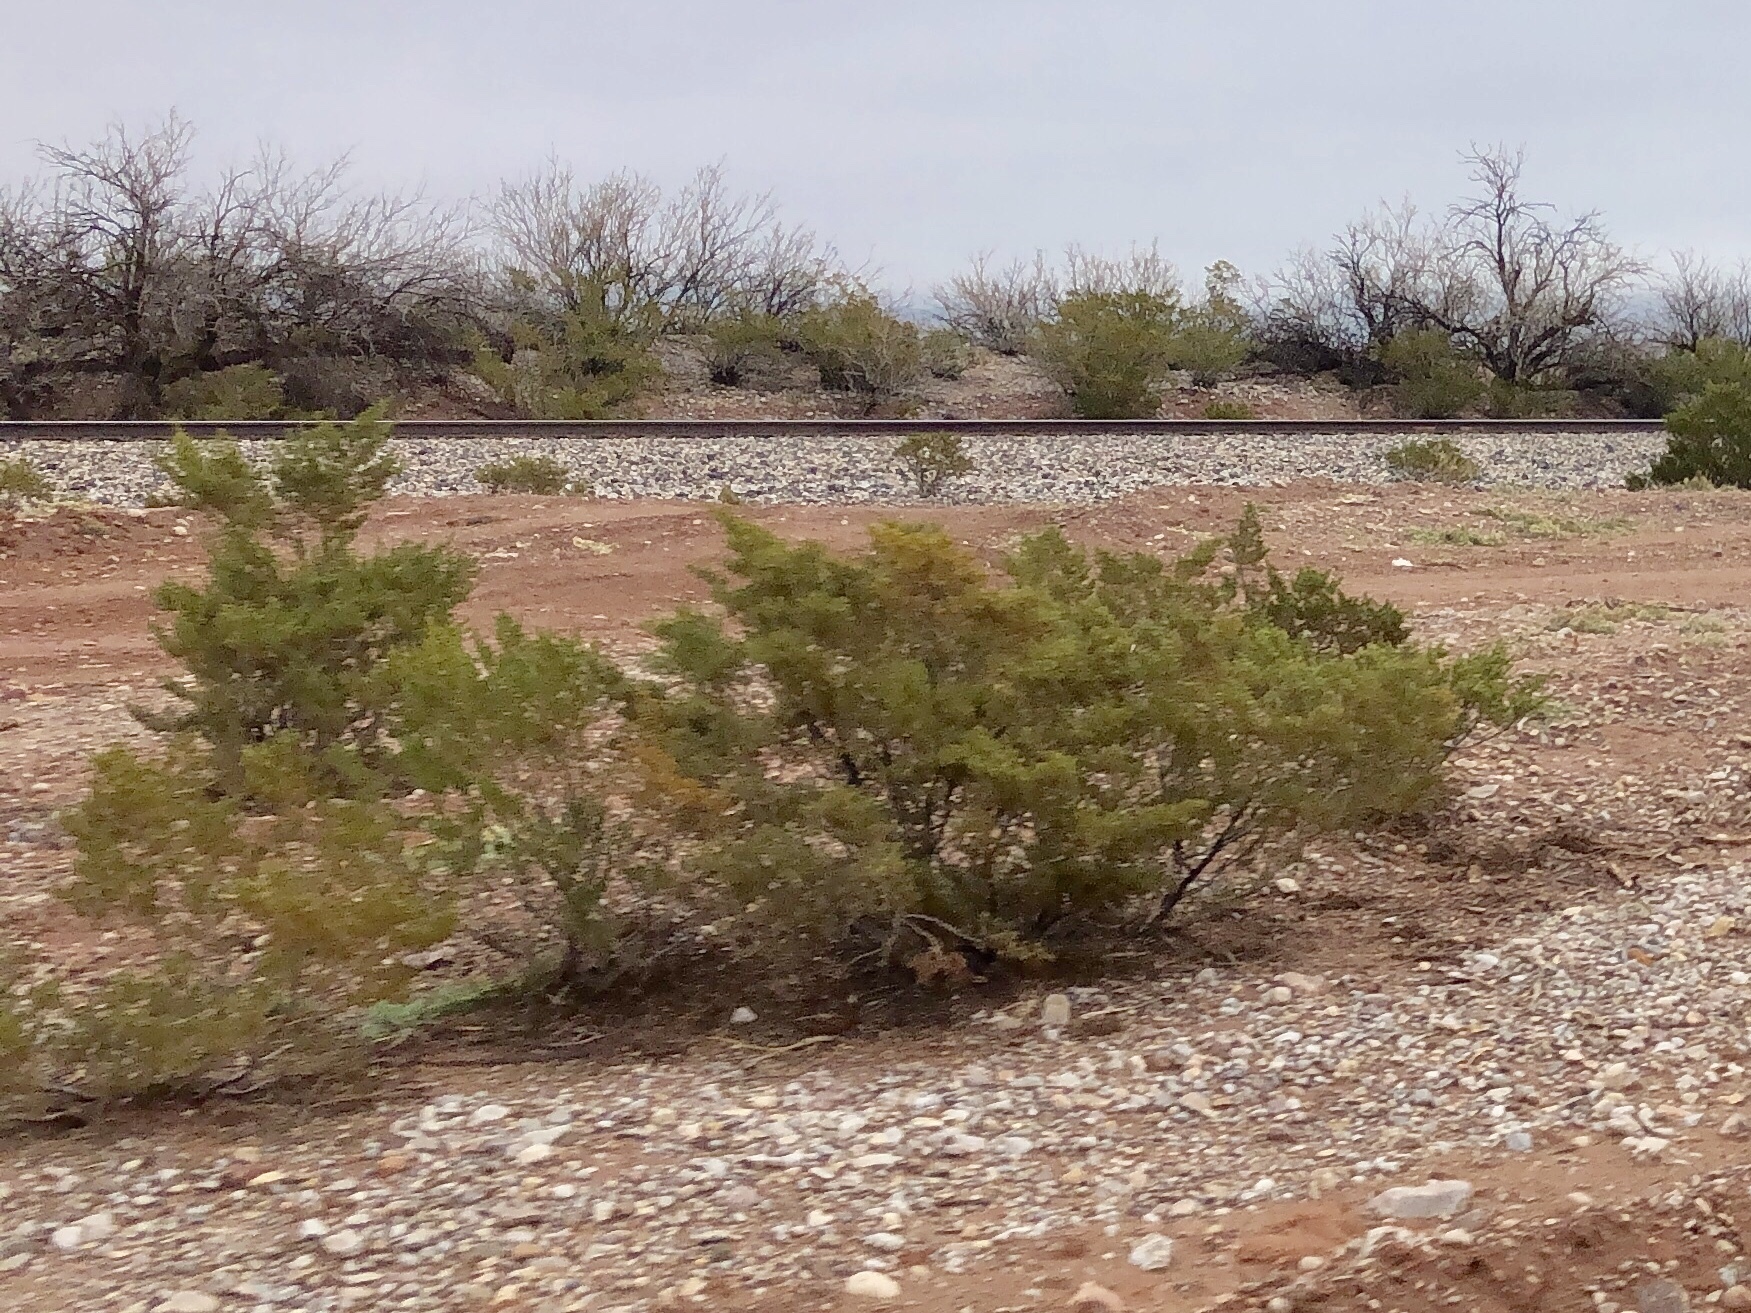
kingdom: Plantae
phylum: Tracheophyta
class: Magnoliopsida
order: Zygophyllales
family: Zygophyllaceae
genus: Larrea
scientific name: Larrea tridentata
